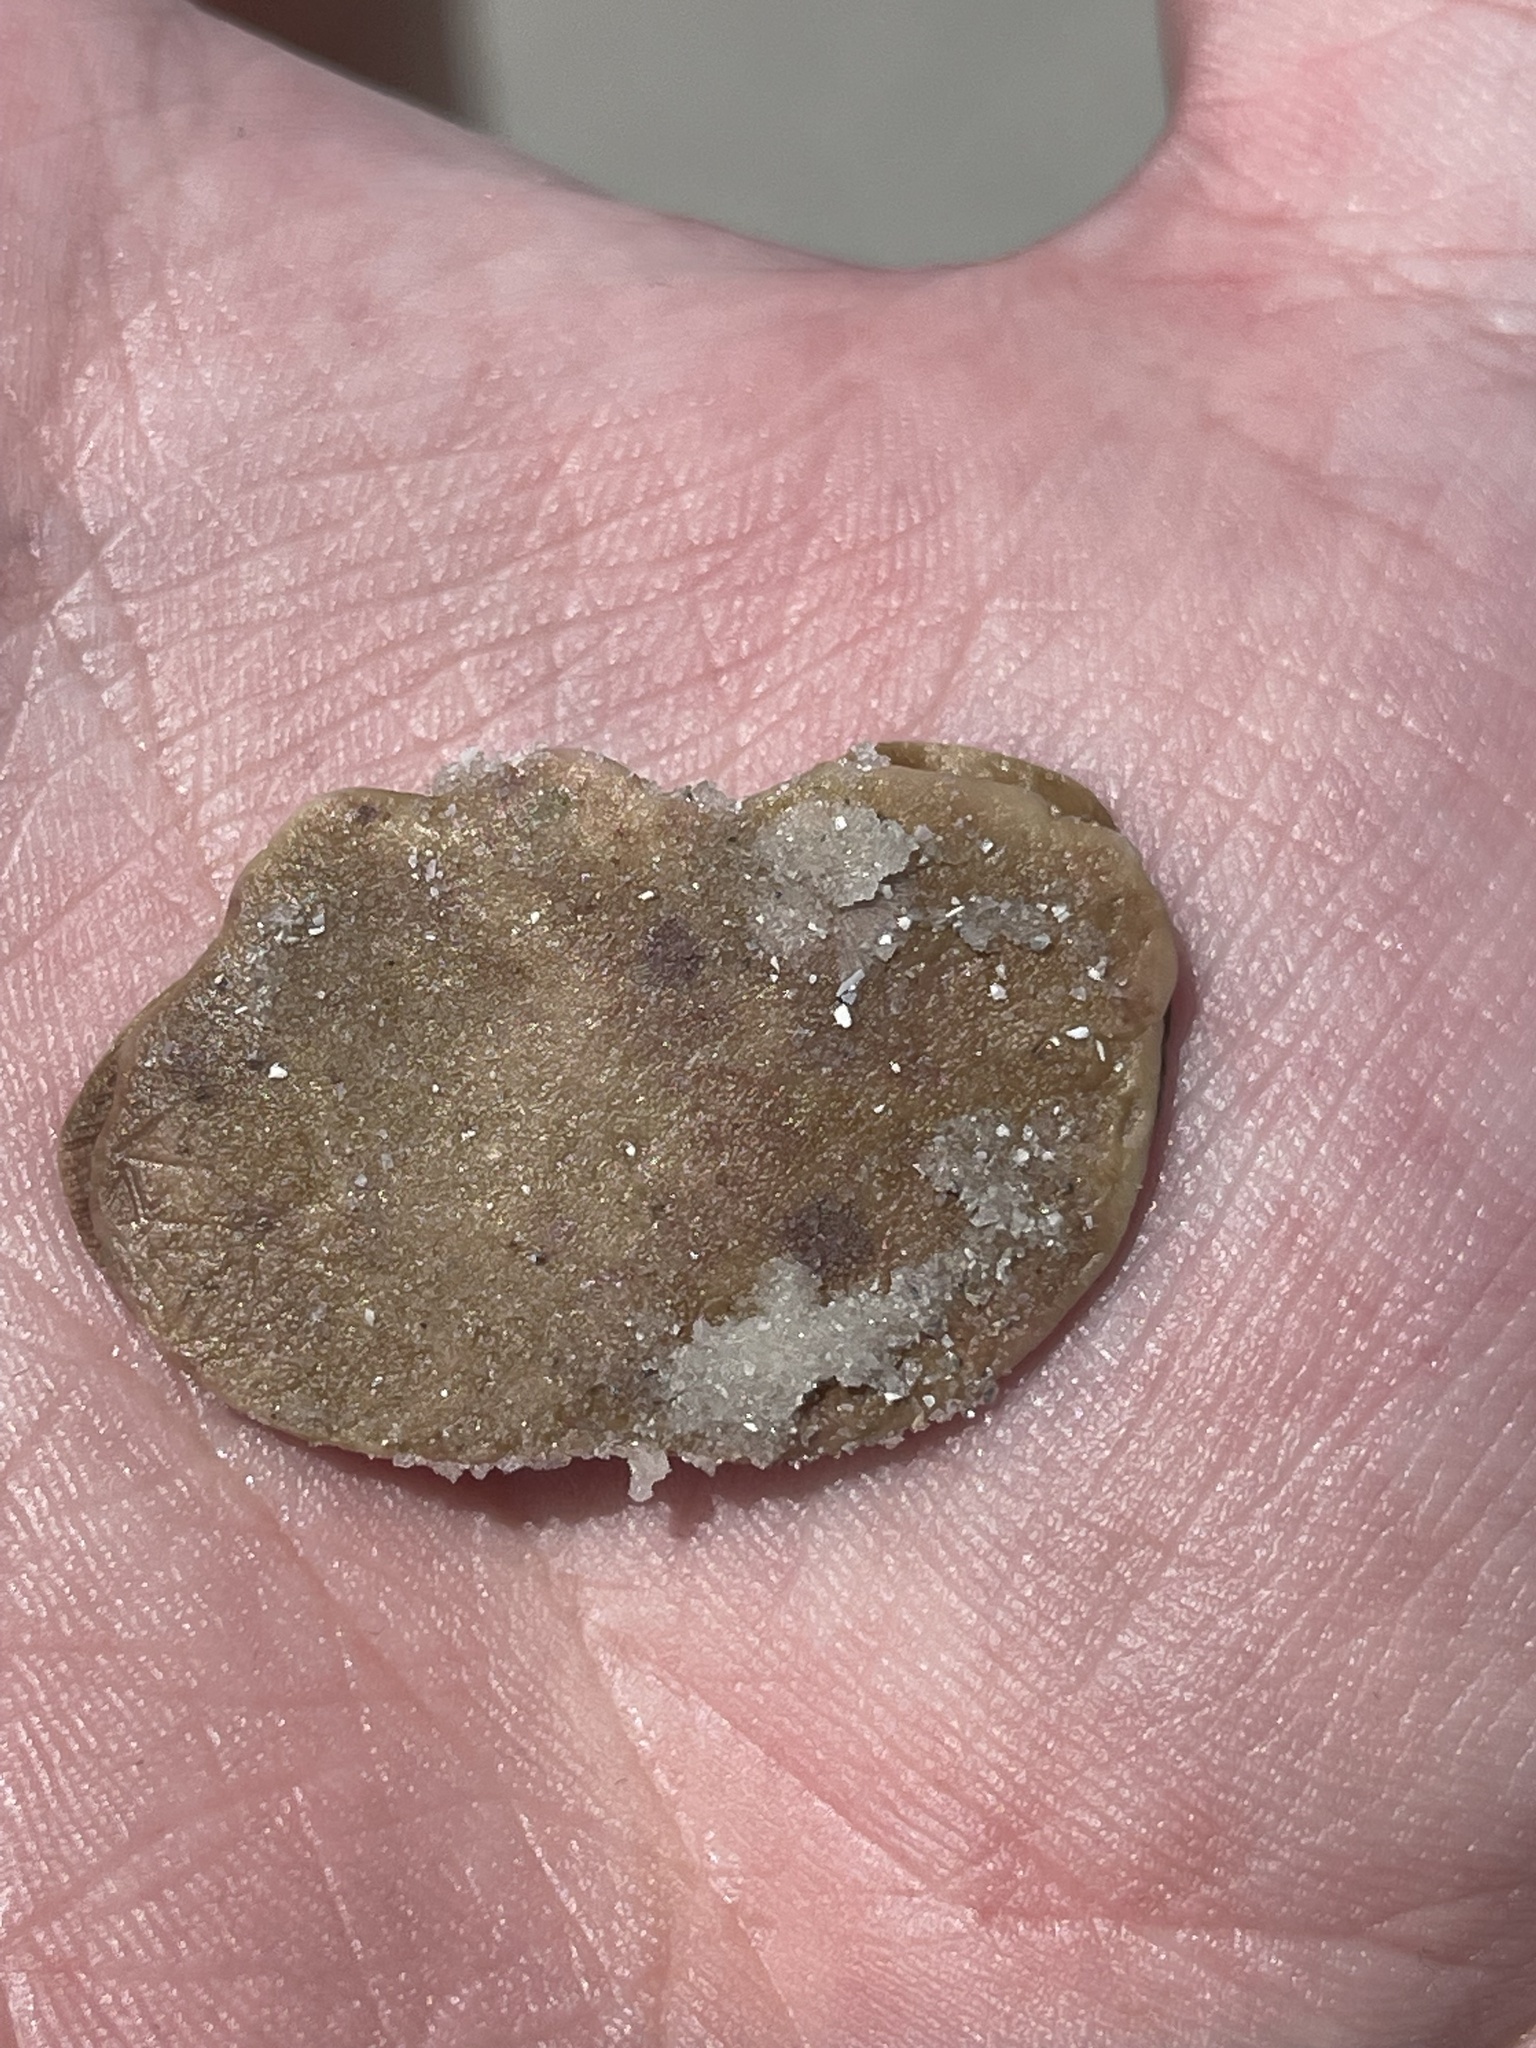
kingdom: Animalia
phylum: Echinodermata
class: Echinoidea
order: Echinolampadacea
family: Mellitidae
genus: Mellita
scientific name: Mellita quinquiesperforata
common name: Sand dollar
